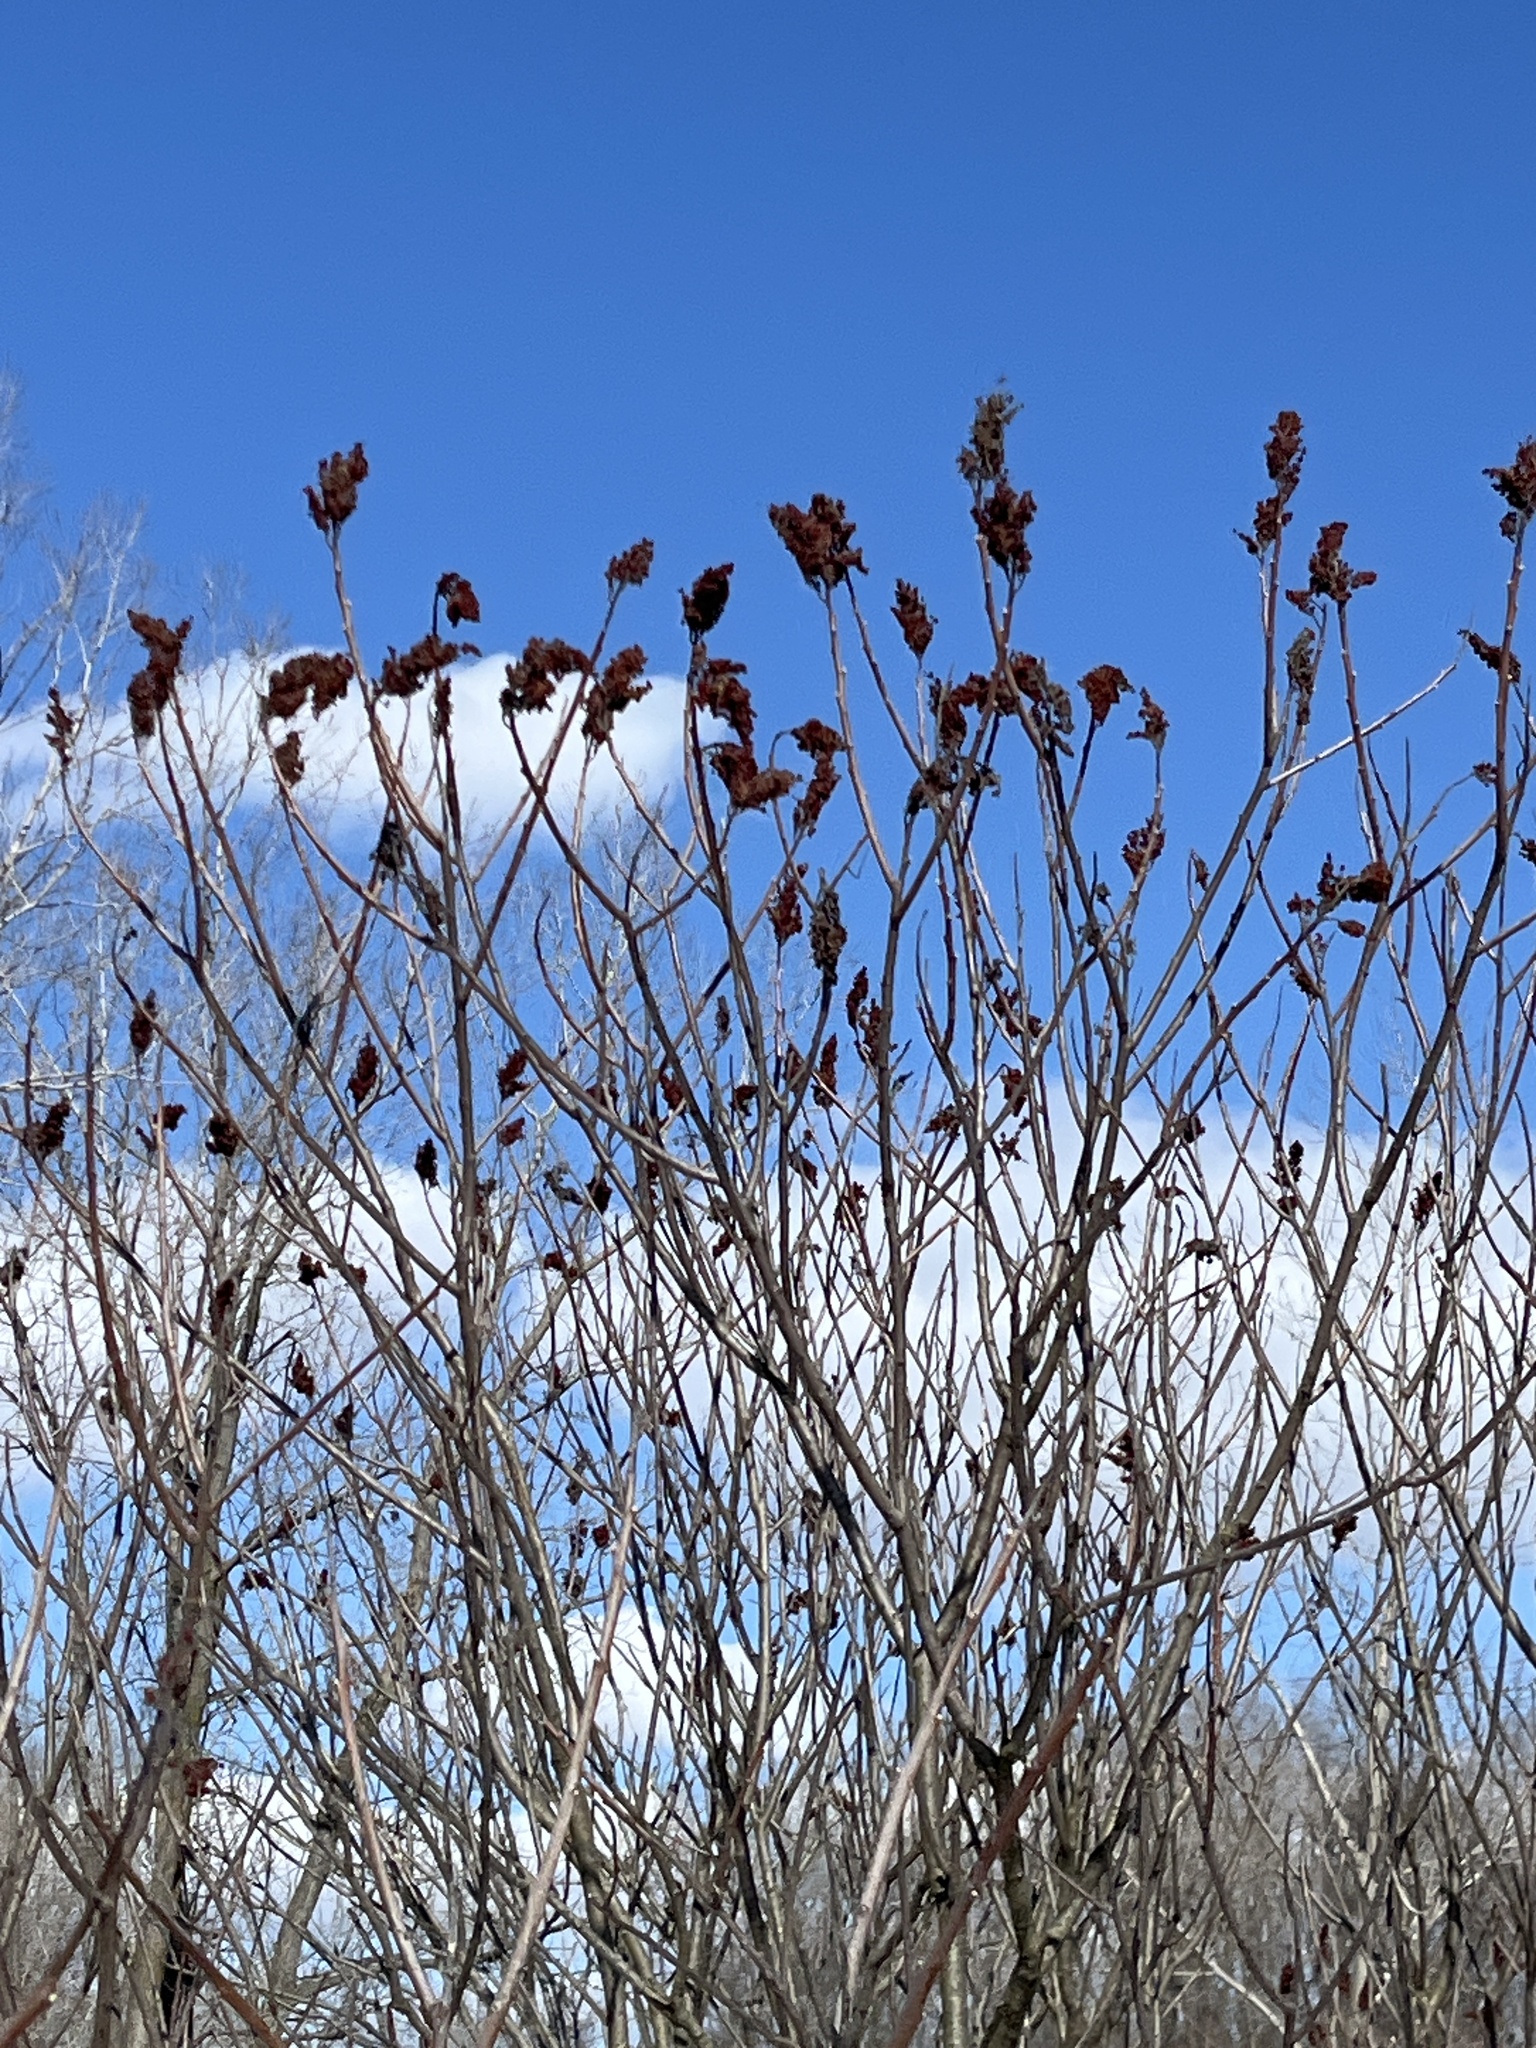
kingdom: Plantae
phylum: Tracheophyta
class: Magnoliopsida
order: Sapindales
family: Anacardiaceae
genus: Rhus
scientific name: Rhus typhina
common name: Staghorn sumac
